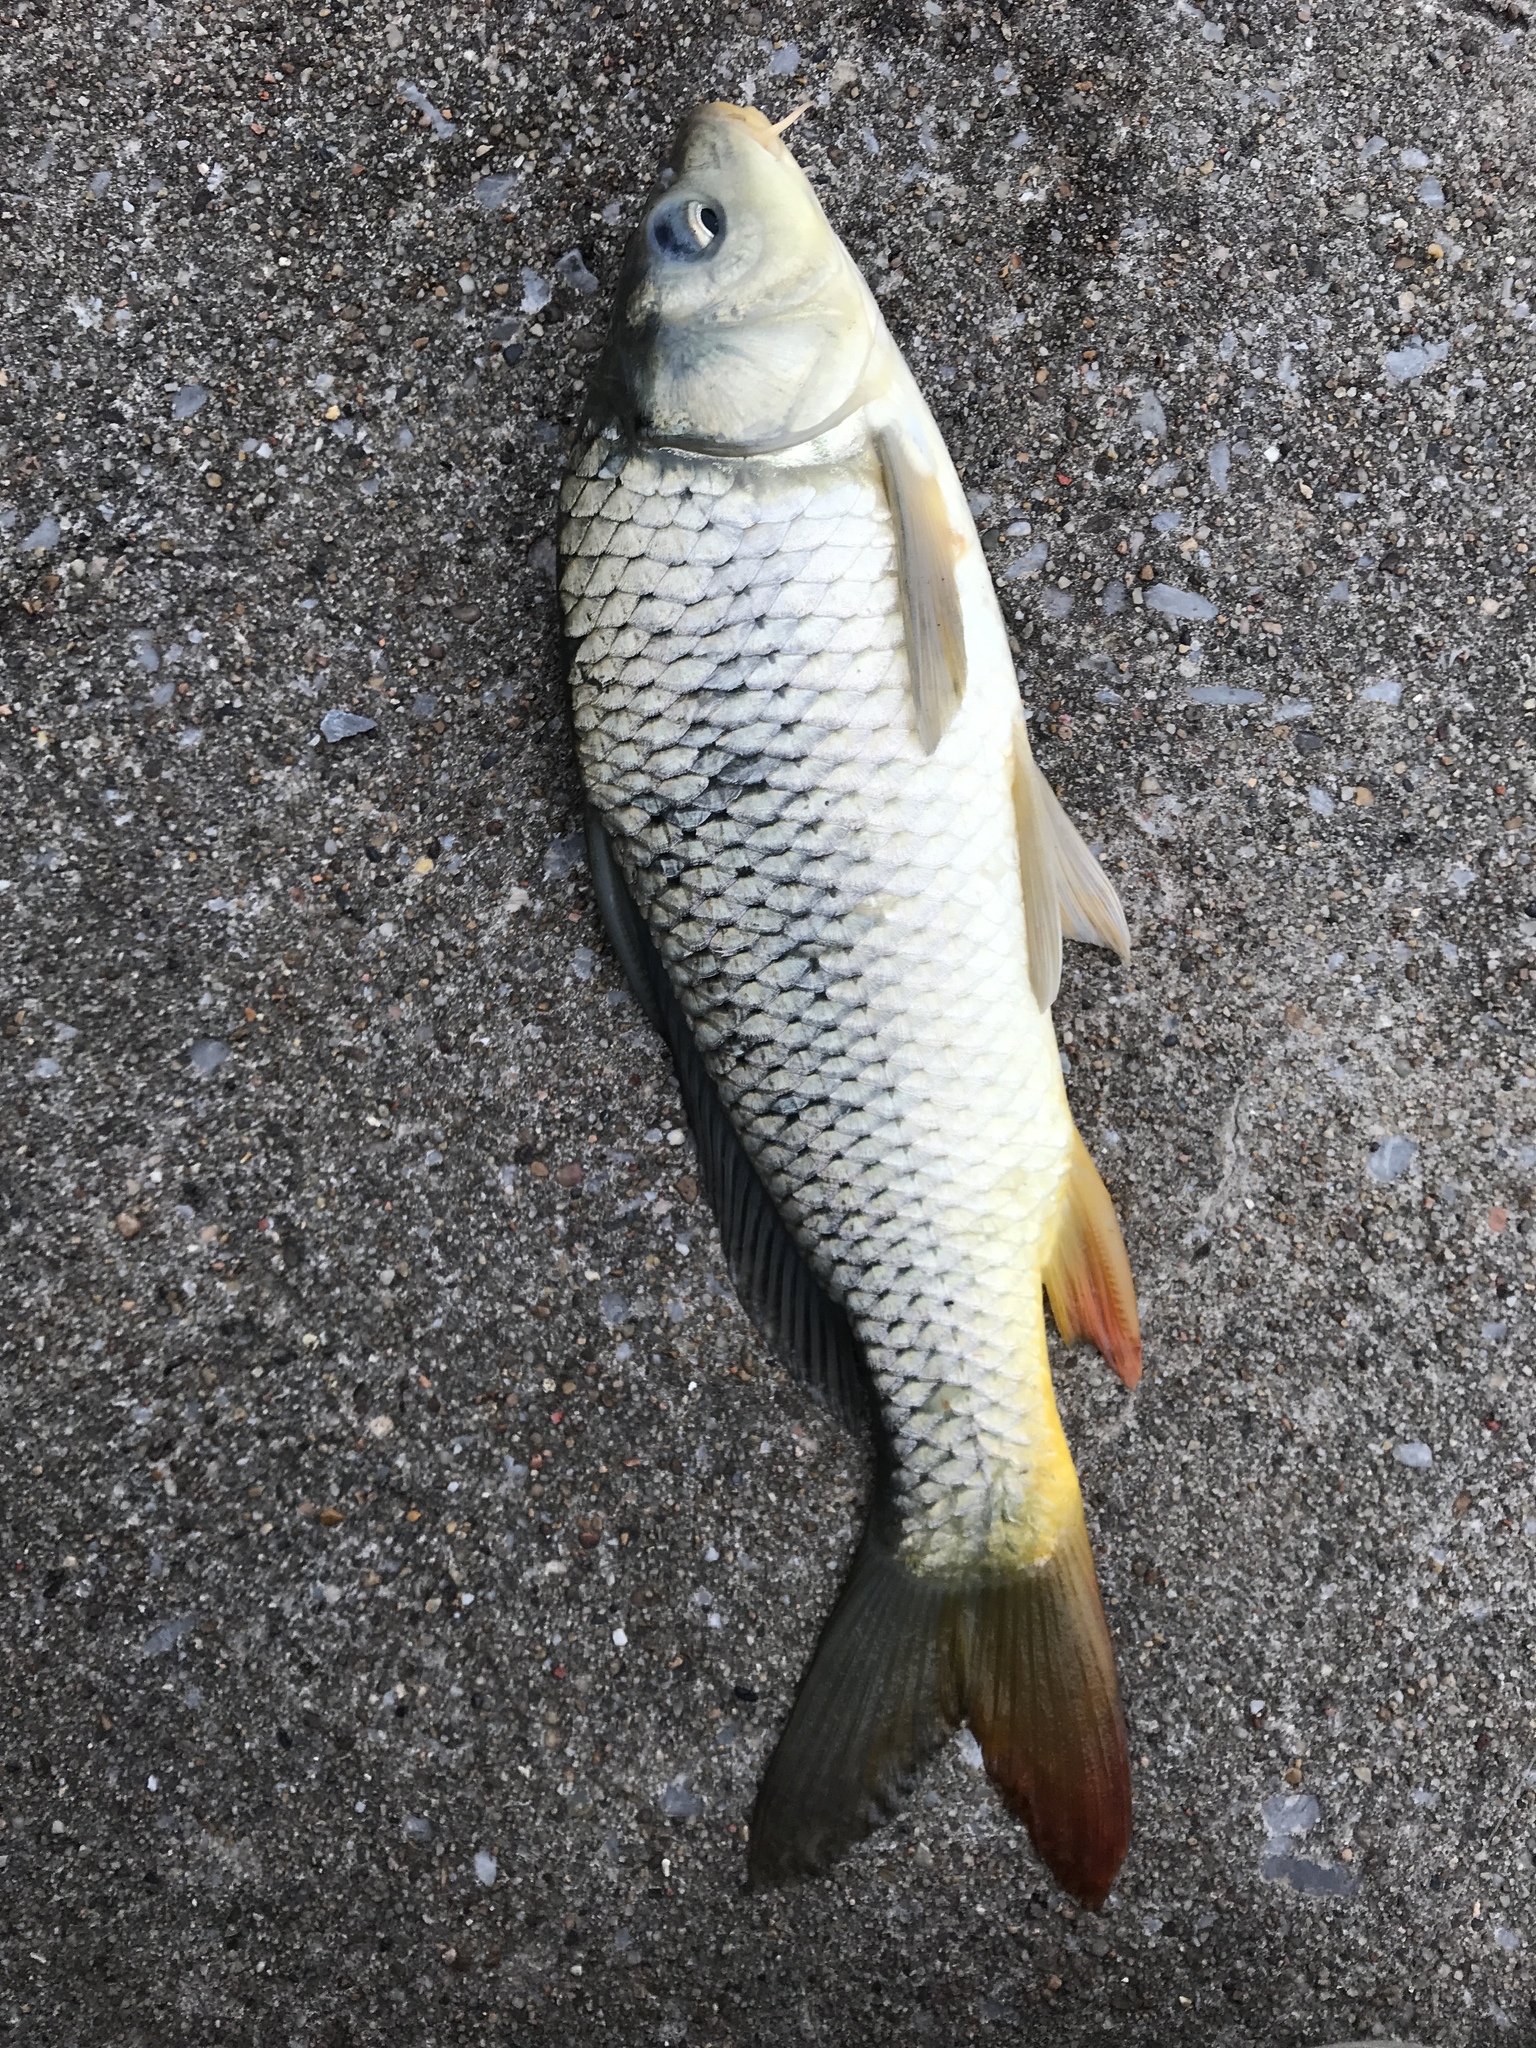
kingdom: Animalia
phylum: Chordata
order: Cypriniformes
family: Cyprinidae
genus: Cyprinus
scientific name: Cyprinus carpio
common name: Common carp
